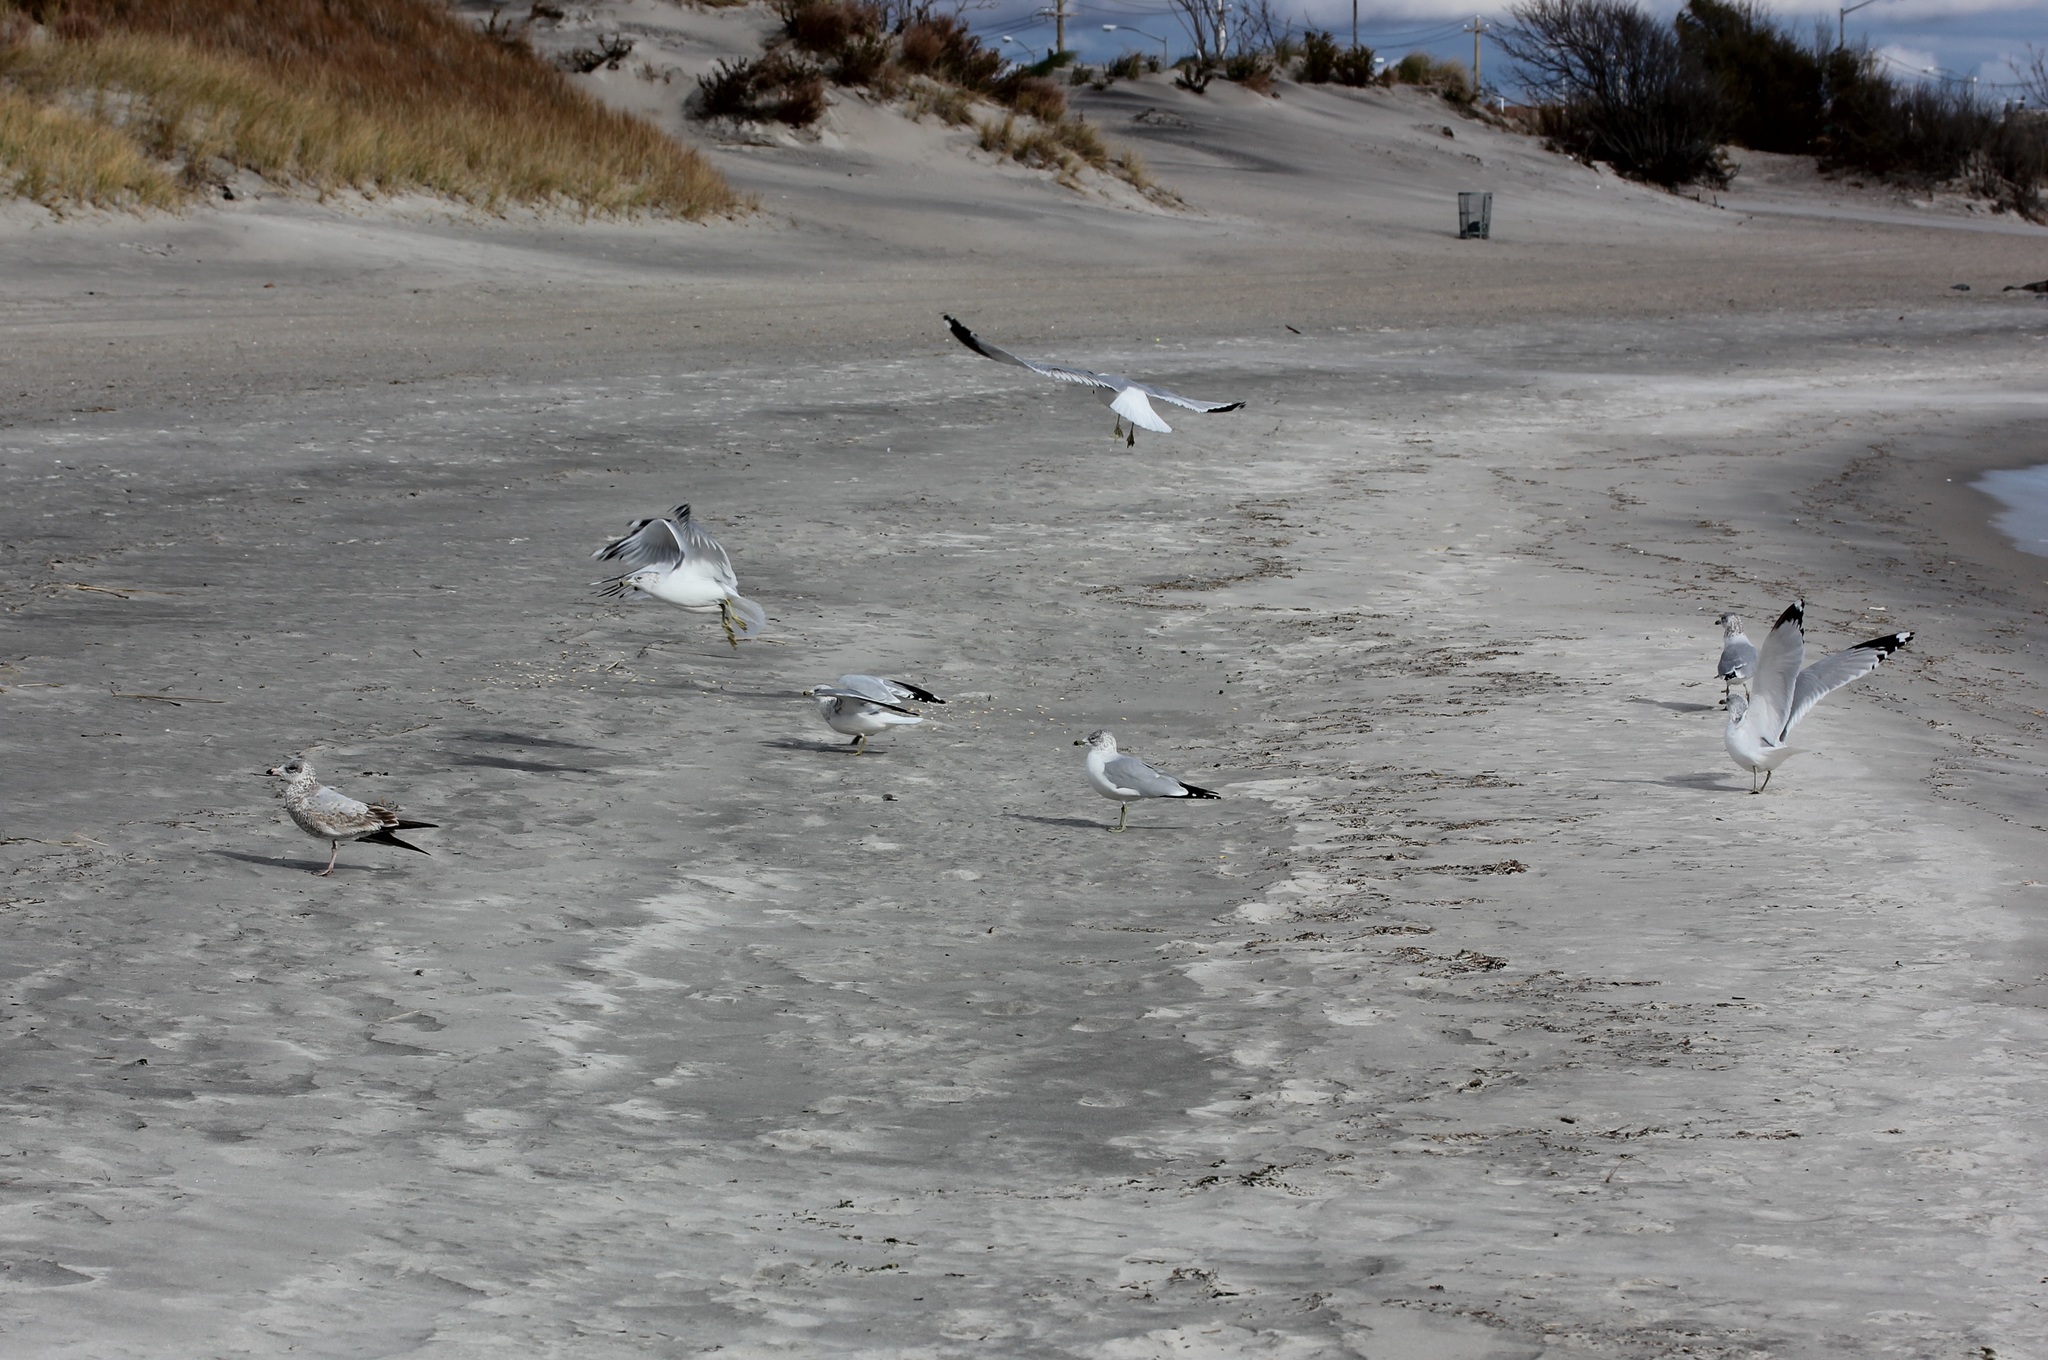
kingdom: Animalia
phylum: Chordata
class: Aves
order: Charadriiformes
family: Laridae
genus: Larus
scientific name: Larus delawarensis
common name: Ring-billed gull
